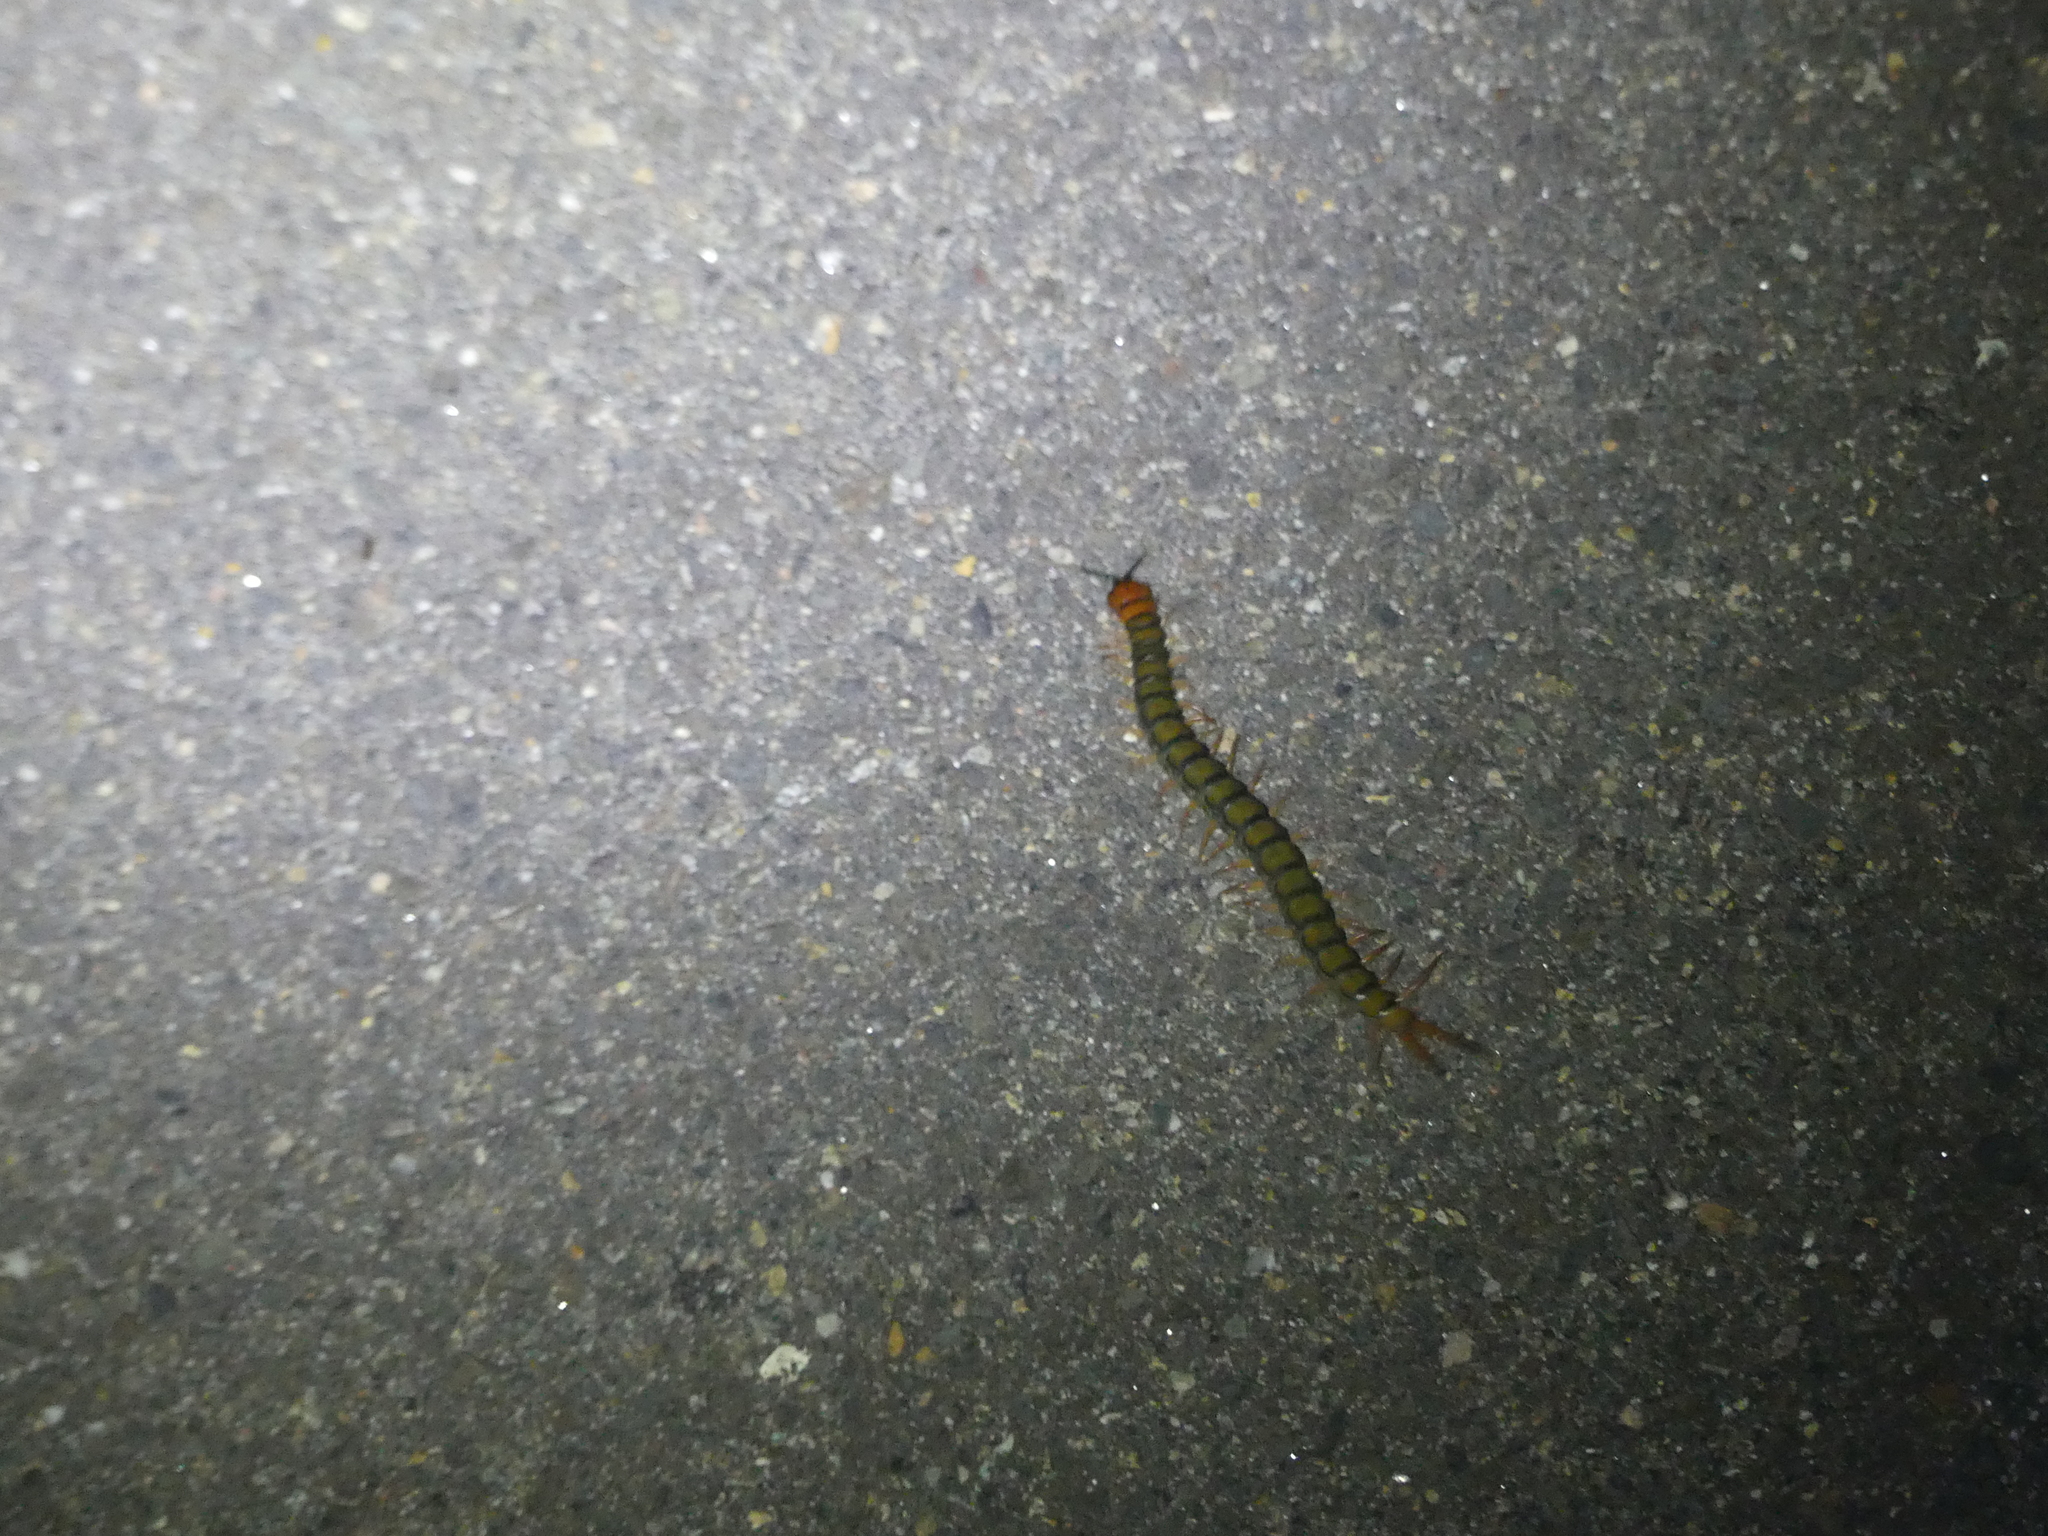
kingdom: Animalia
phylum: Arthropoda
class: Chilopoda
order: Scolopendromorpha
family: Scolopendridae
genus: Cormocephalus
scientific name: Cormocephalus aurantiipes
